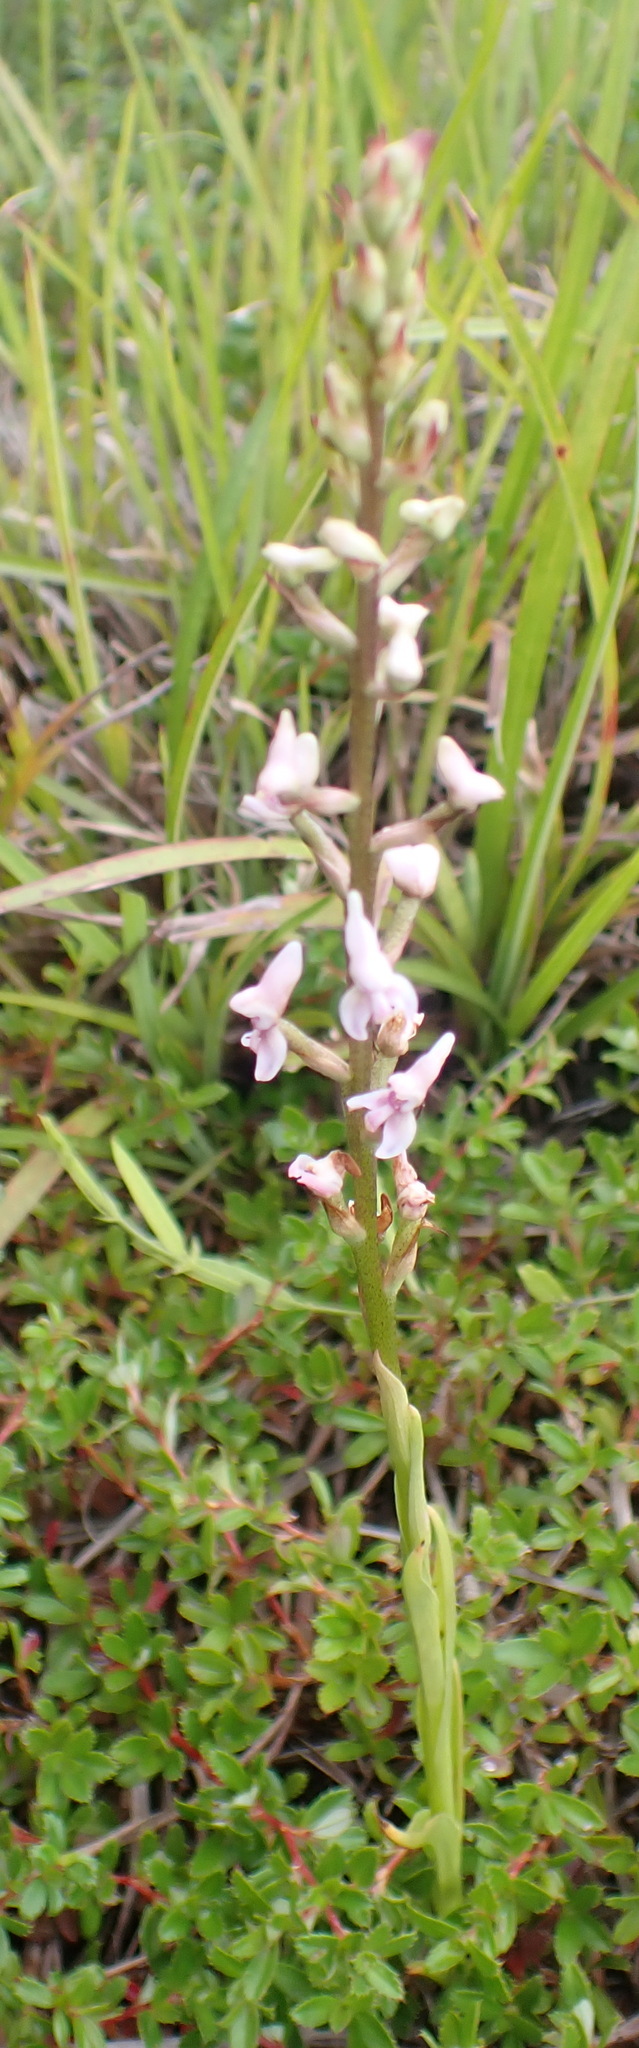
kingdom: Plantae
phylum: Tracheophyta
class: Liliopsida
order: Asparagales
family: Orchidaceae
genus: Disa
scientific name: Disa aconitoides
